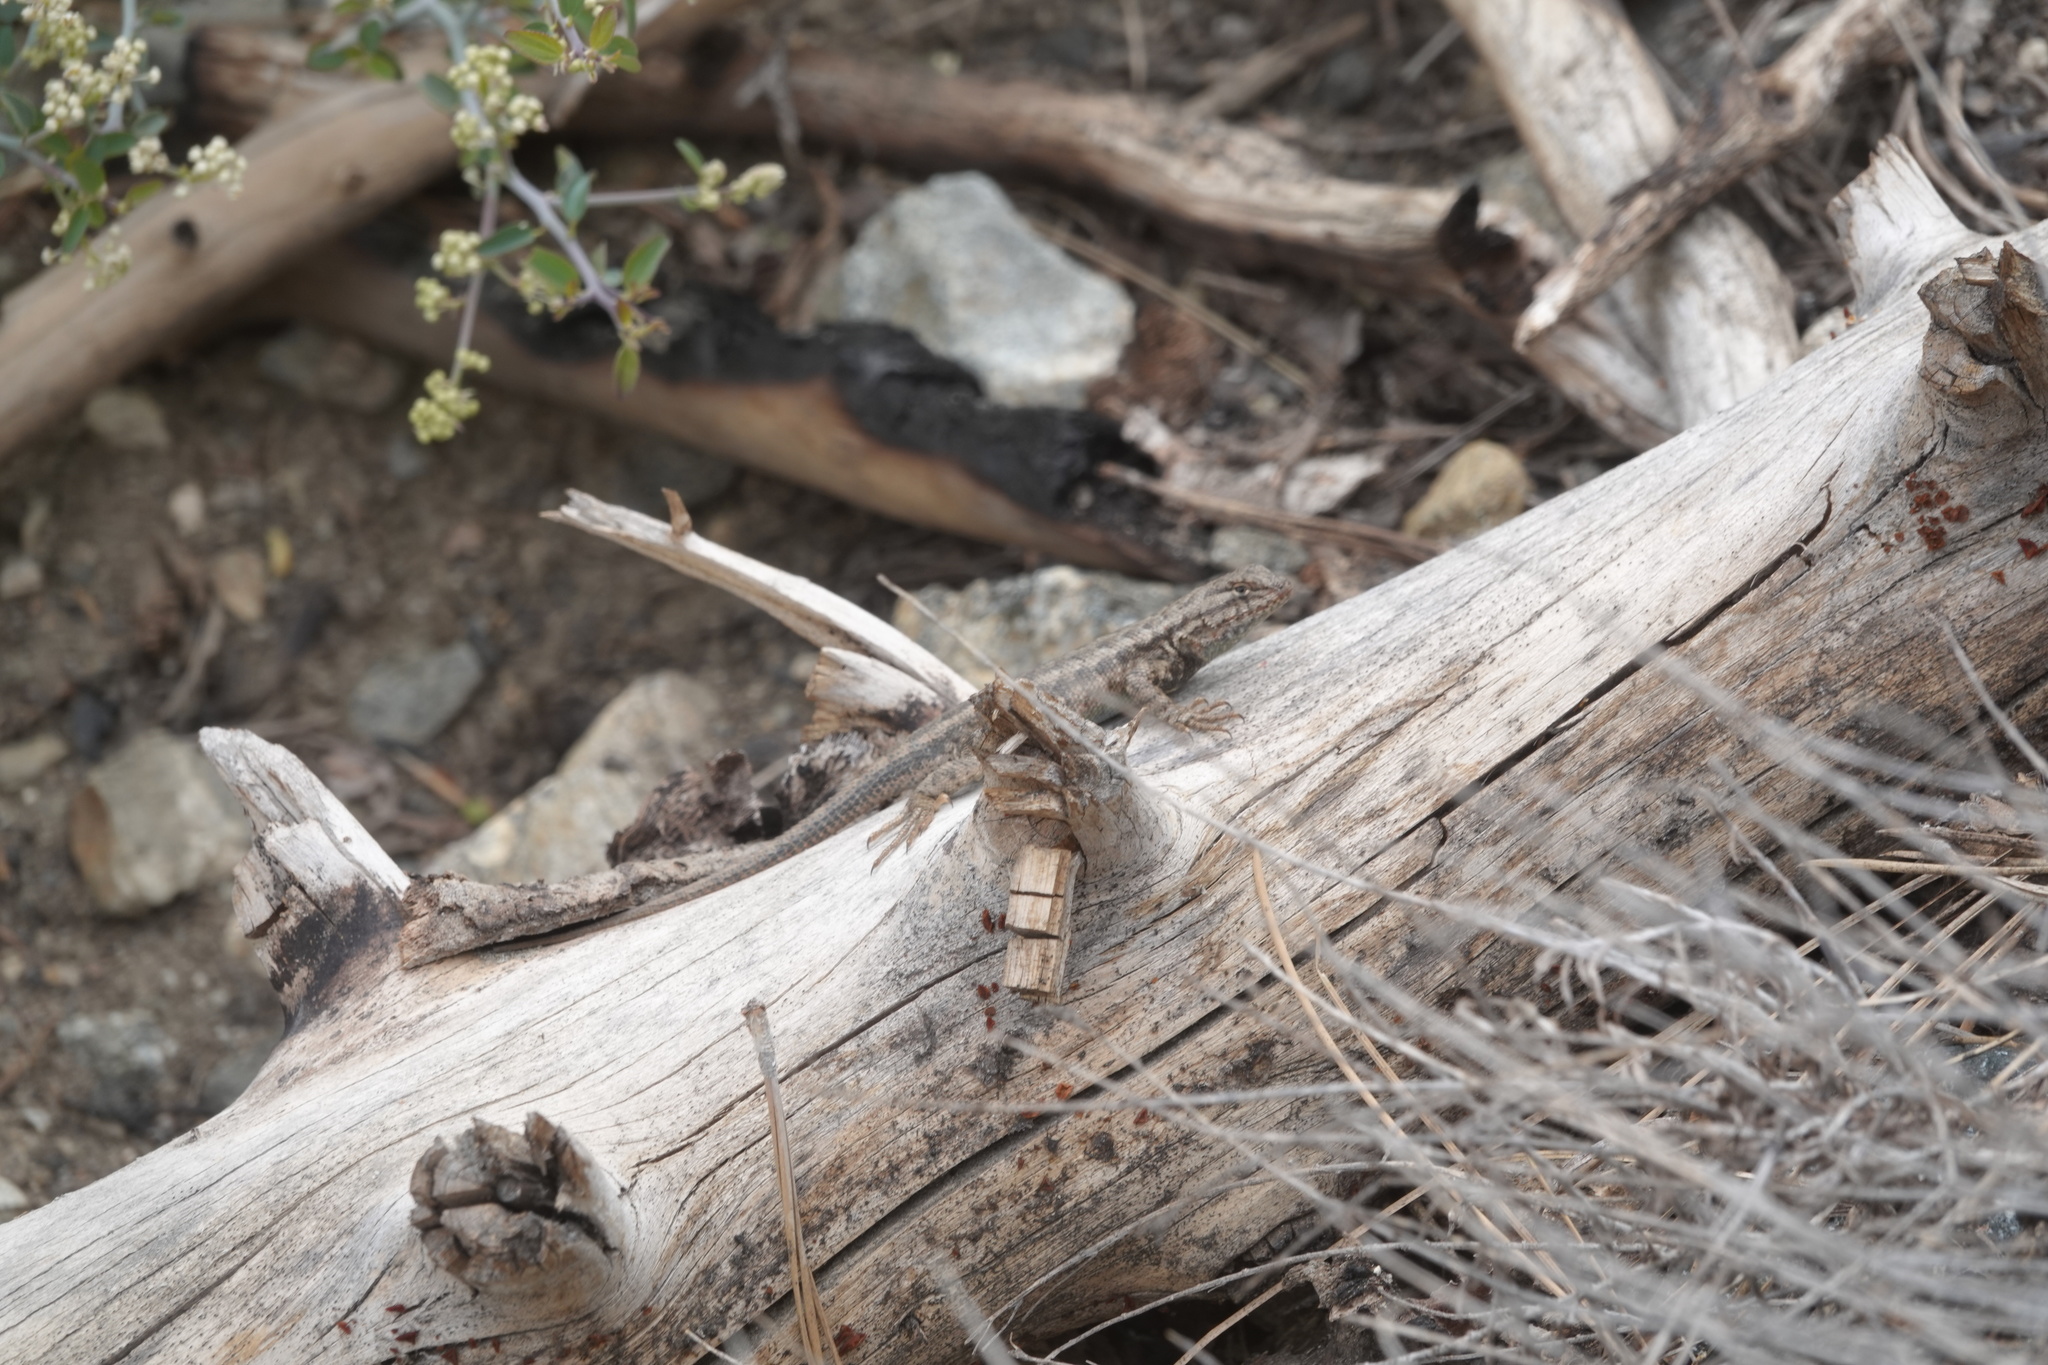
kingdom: Animalia
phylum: Chordata
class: Squamata
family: Phrynosomatidae
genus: Sceloporus
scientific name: Sceloporus graciosus
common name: Sagebrush lizard
